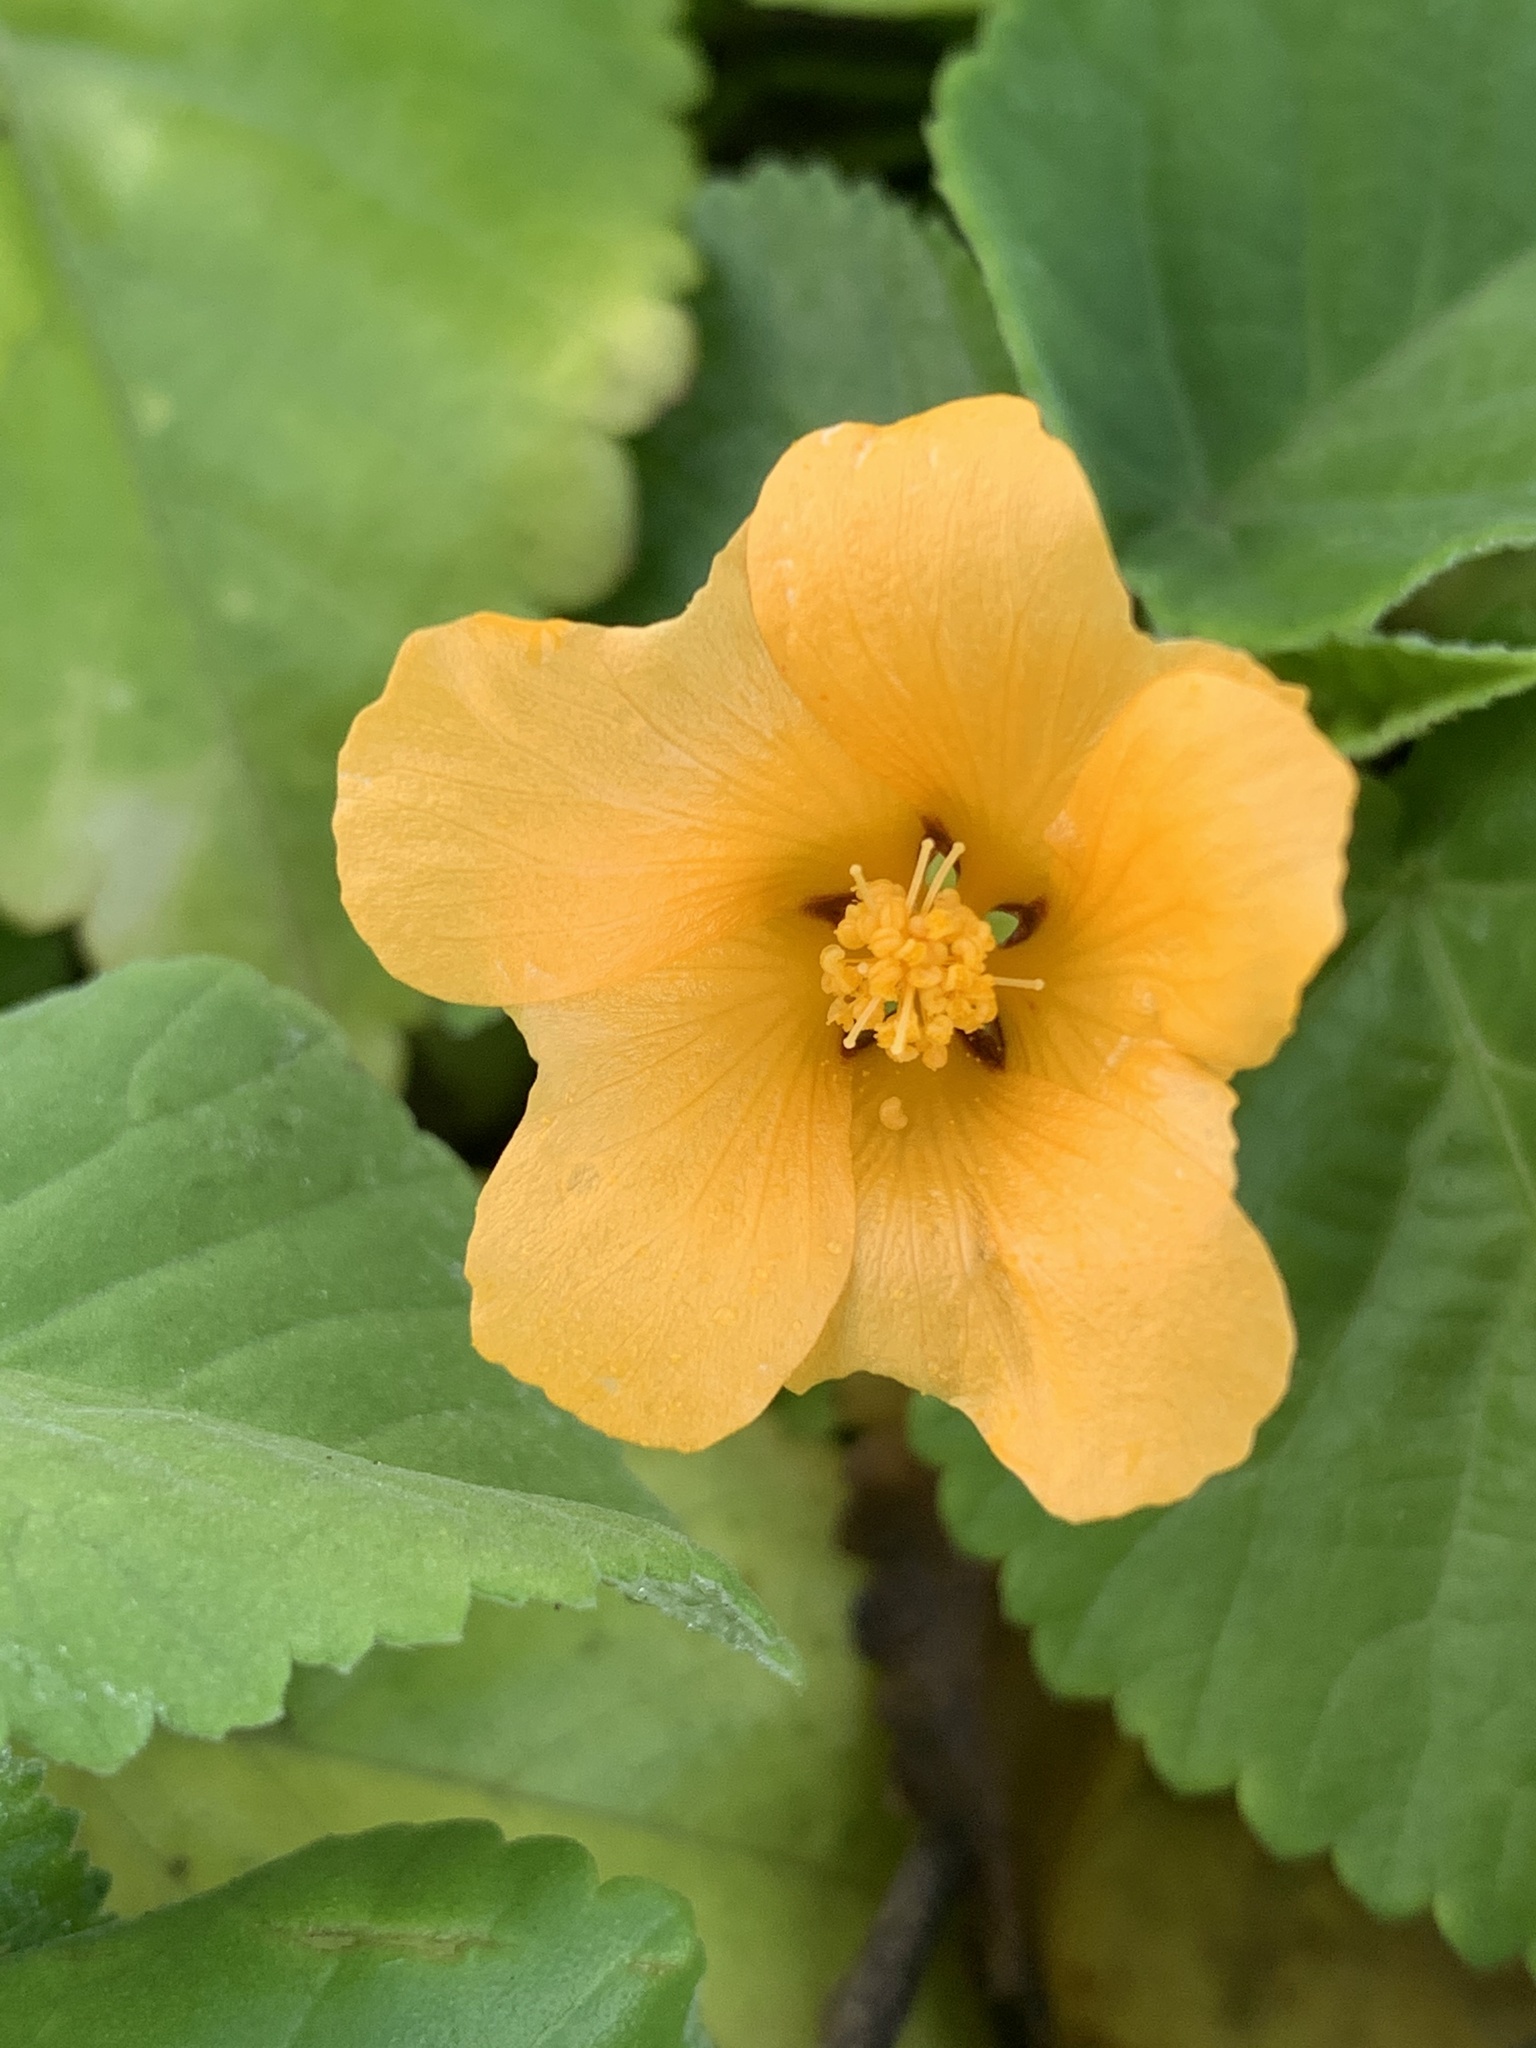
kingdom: Plantae
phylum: Tracheophyta
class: Magnoliopsida
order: Malvales
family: Malvaceae
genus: Sida
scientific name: Sida fallax
